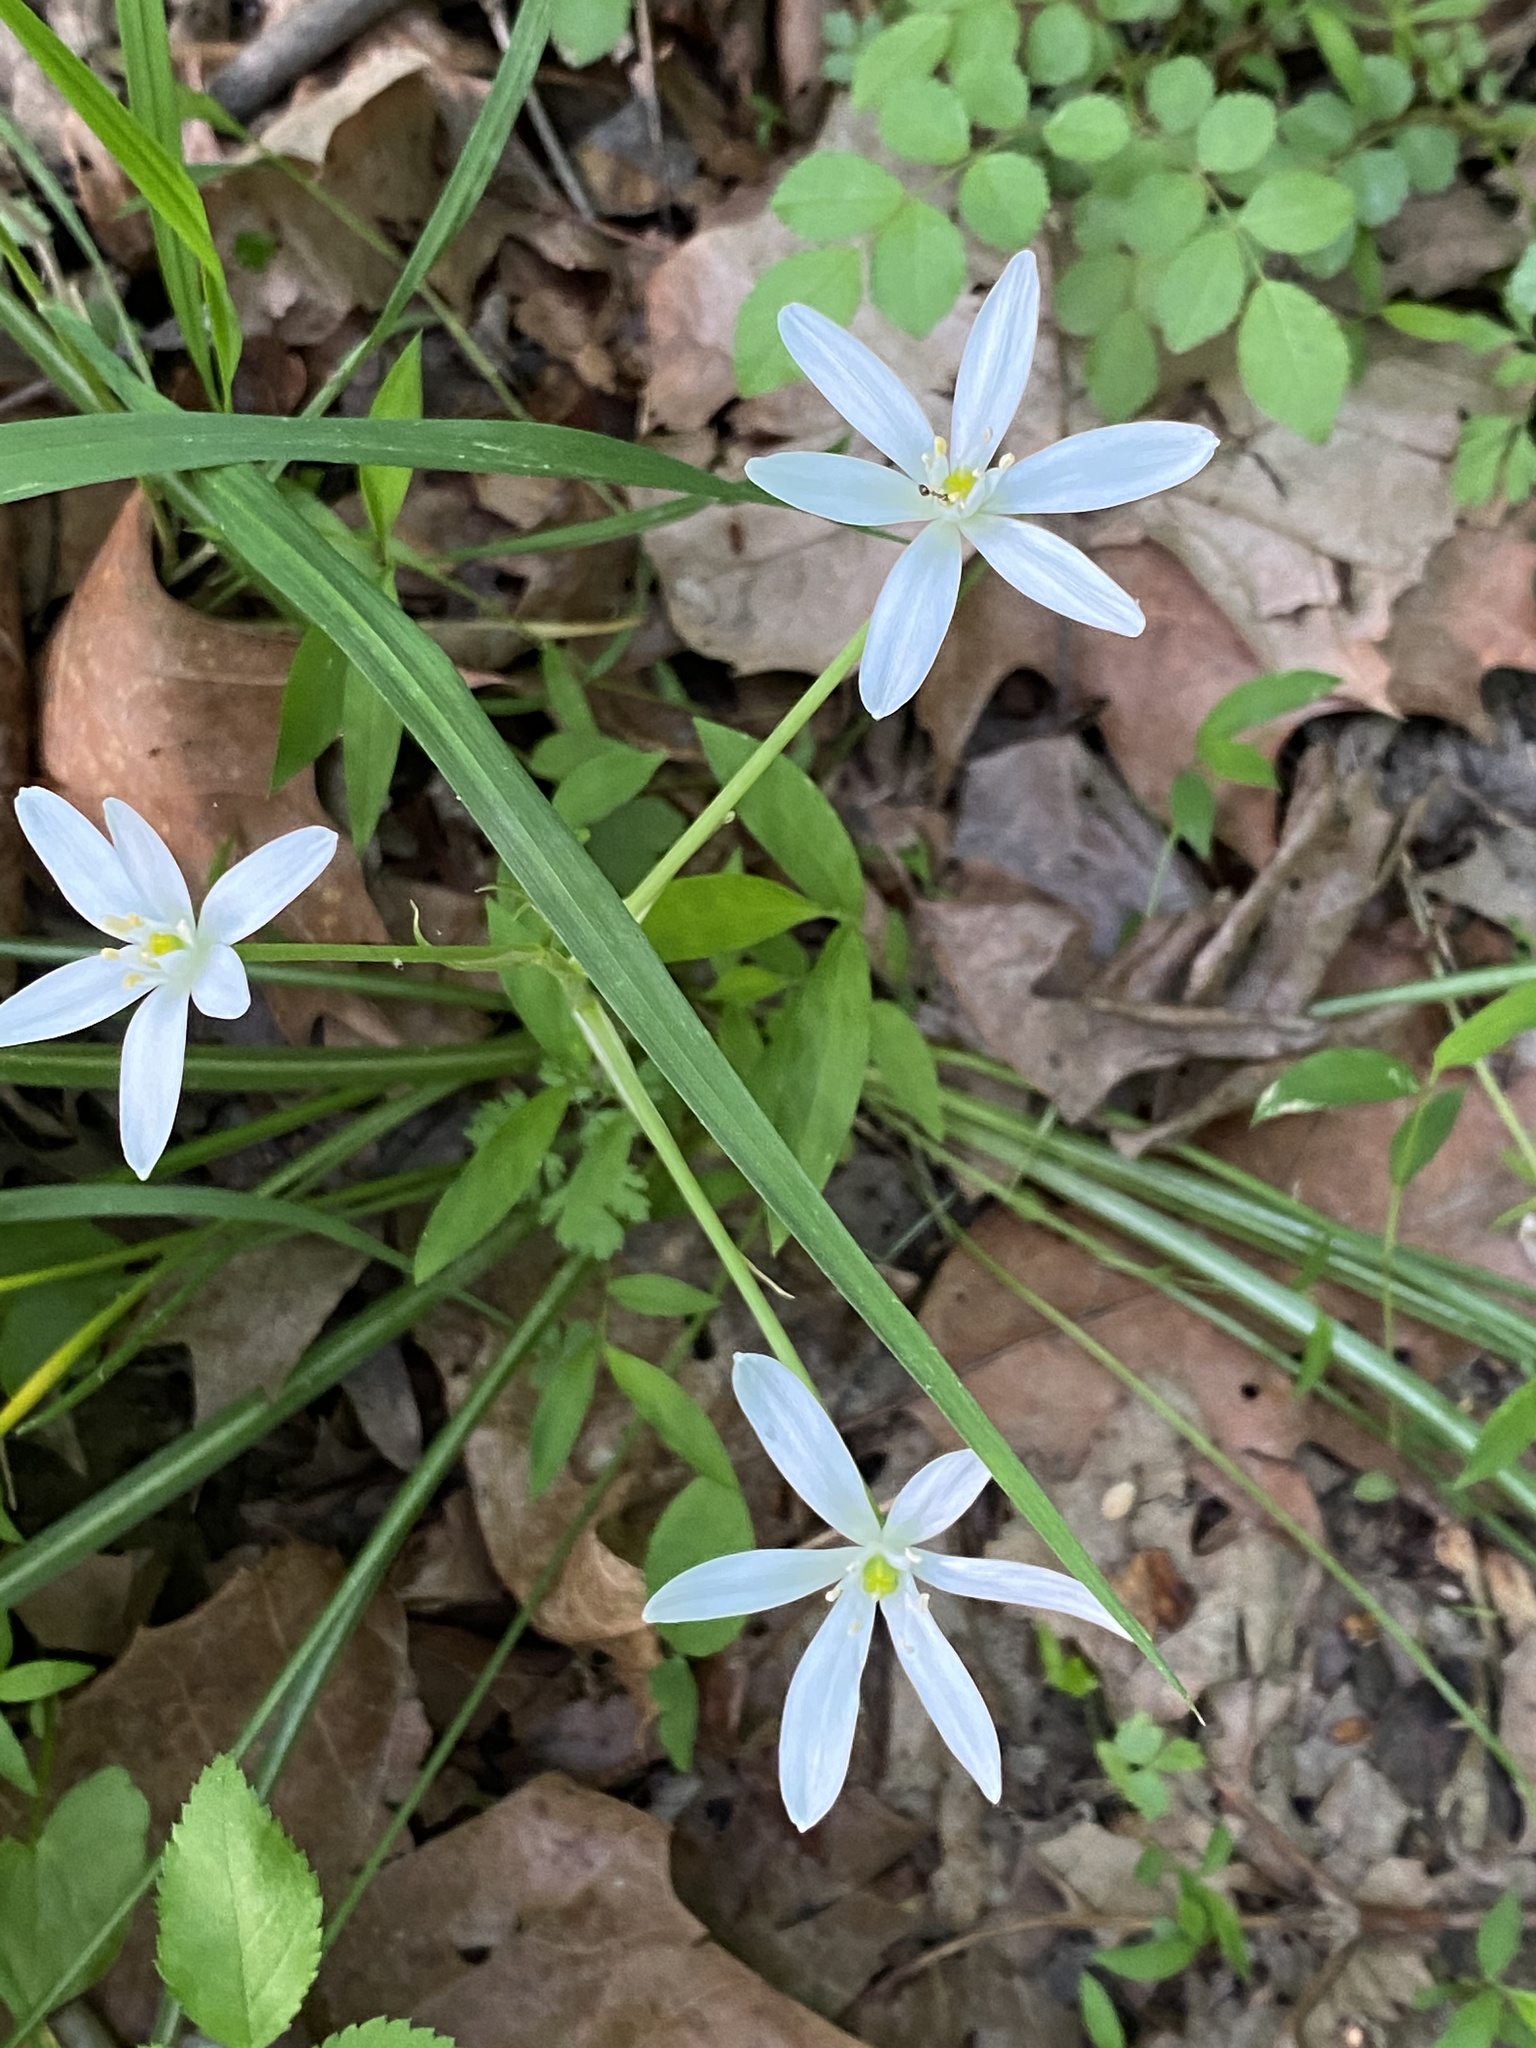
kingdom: Plantae
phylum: Tracheophyta
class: Liliopsida
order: Asparagales
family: Asparagaceae
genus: Ornithogalum
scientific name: Ornithogalum umbellatum
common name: Garden star-of-bethlehem
